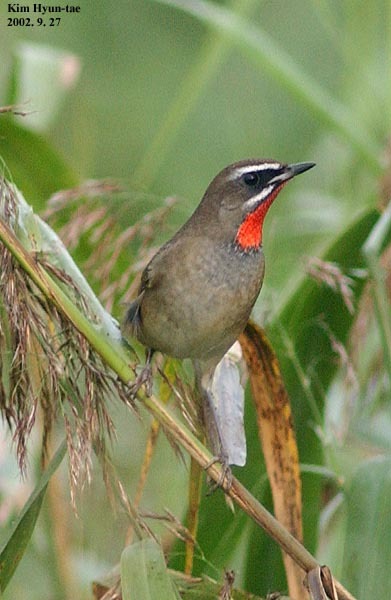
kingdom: Animalia
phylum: Chordata
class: Aves
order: Passeriformes
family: Muscicapidae
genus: Luscinia
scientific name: Luscinia calliope
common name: Siberian rubythroat
